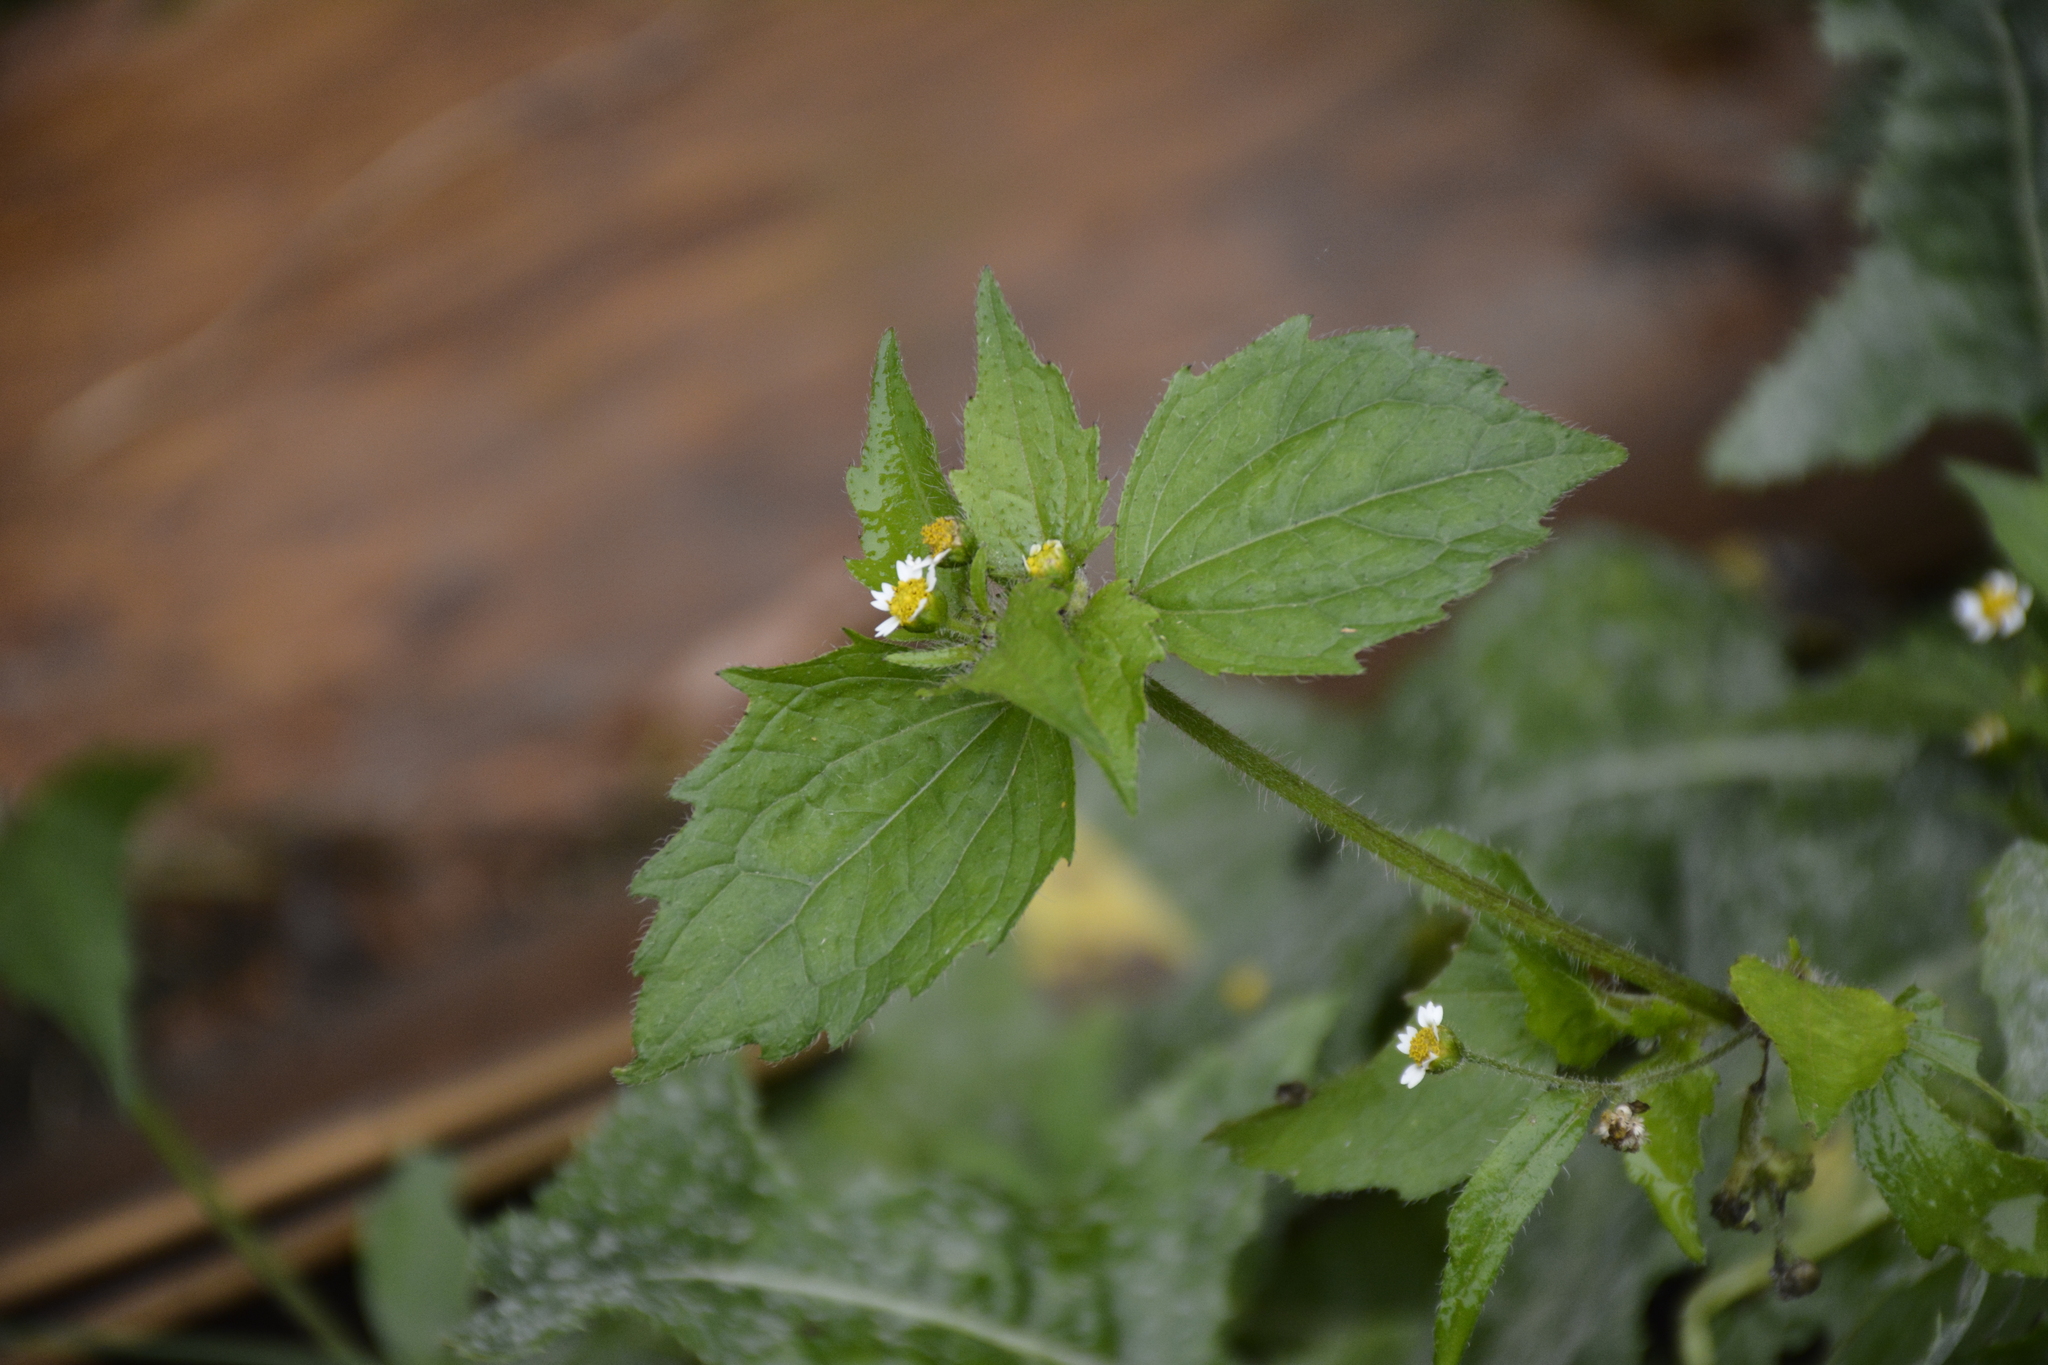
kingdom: Plantae
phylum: Tracheophyta
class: Magnoliopsida
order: Asterales
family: Asteraceae
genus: Galinsoga
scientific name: Galinsoga quadriradiata
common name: Shaggy soldier
